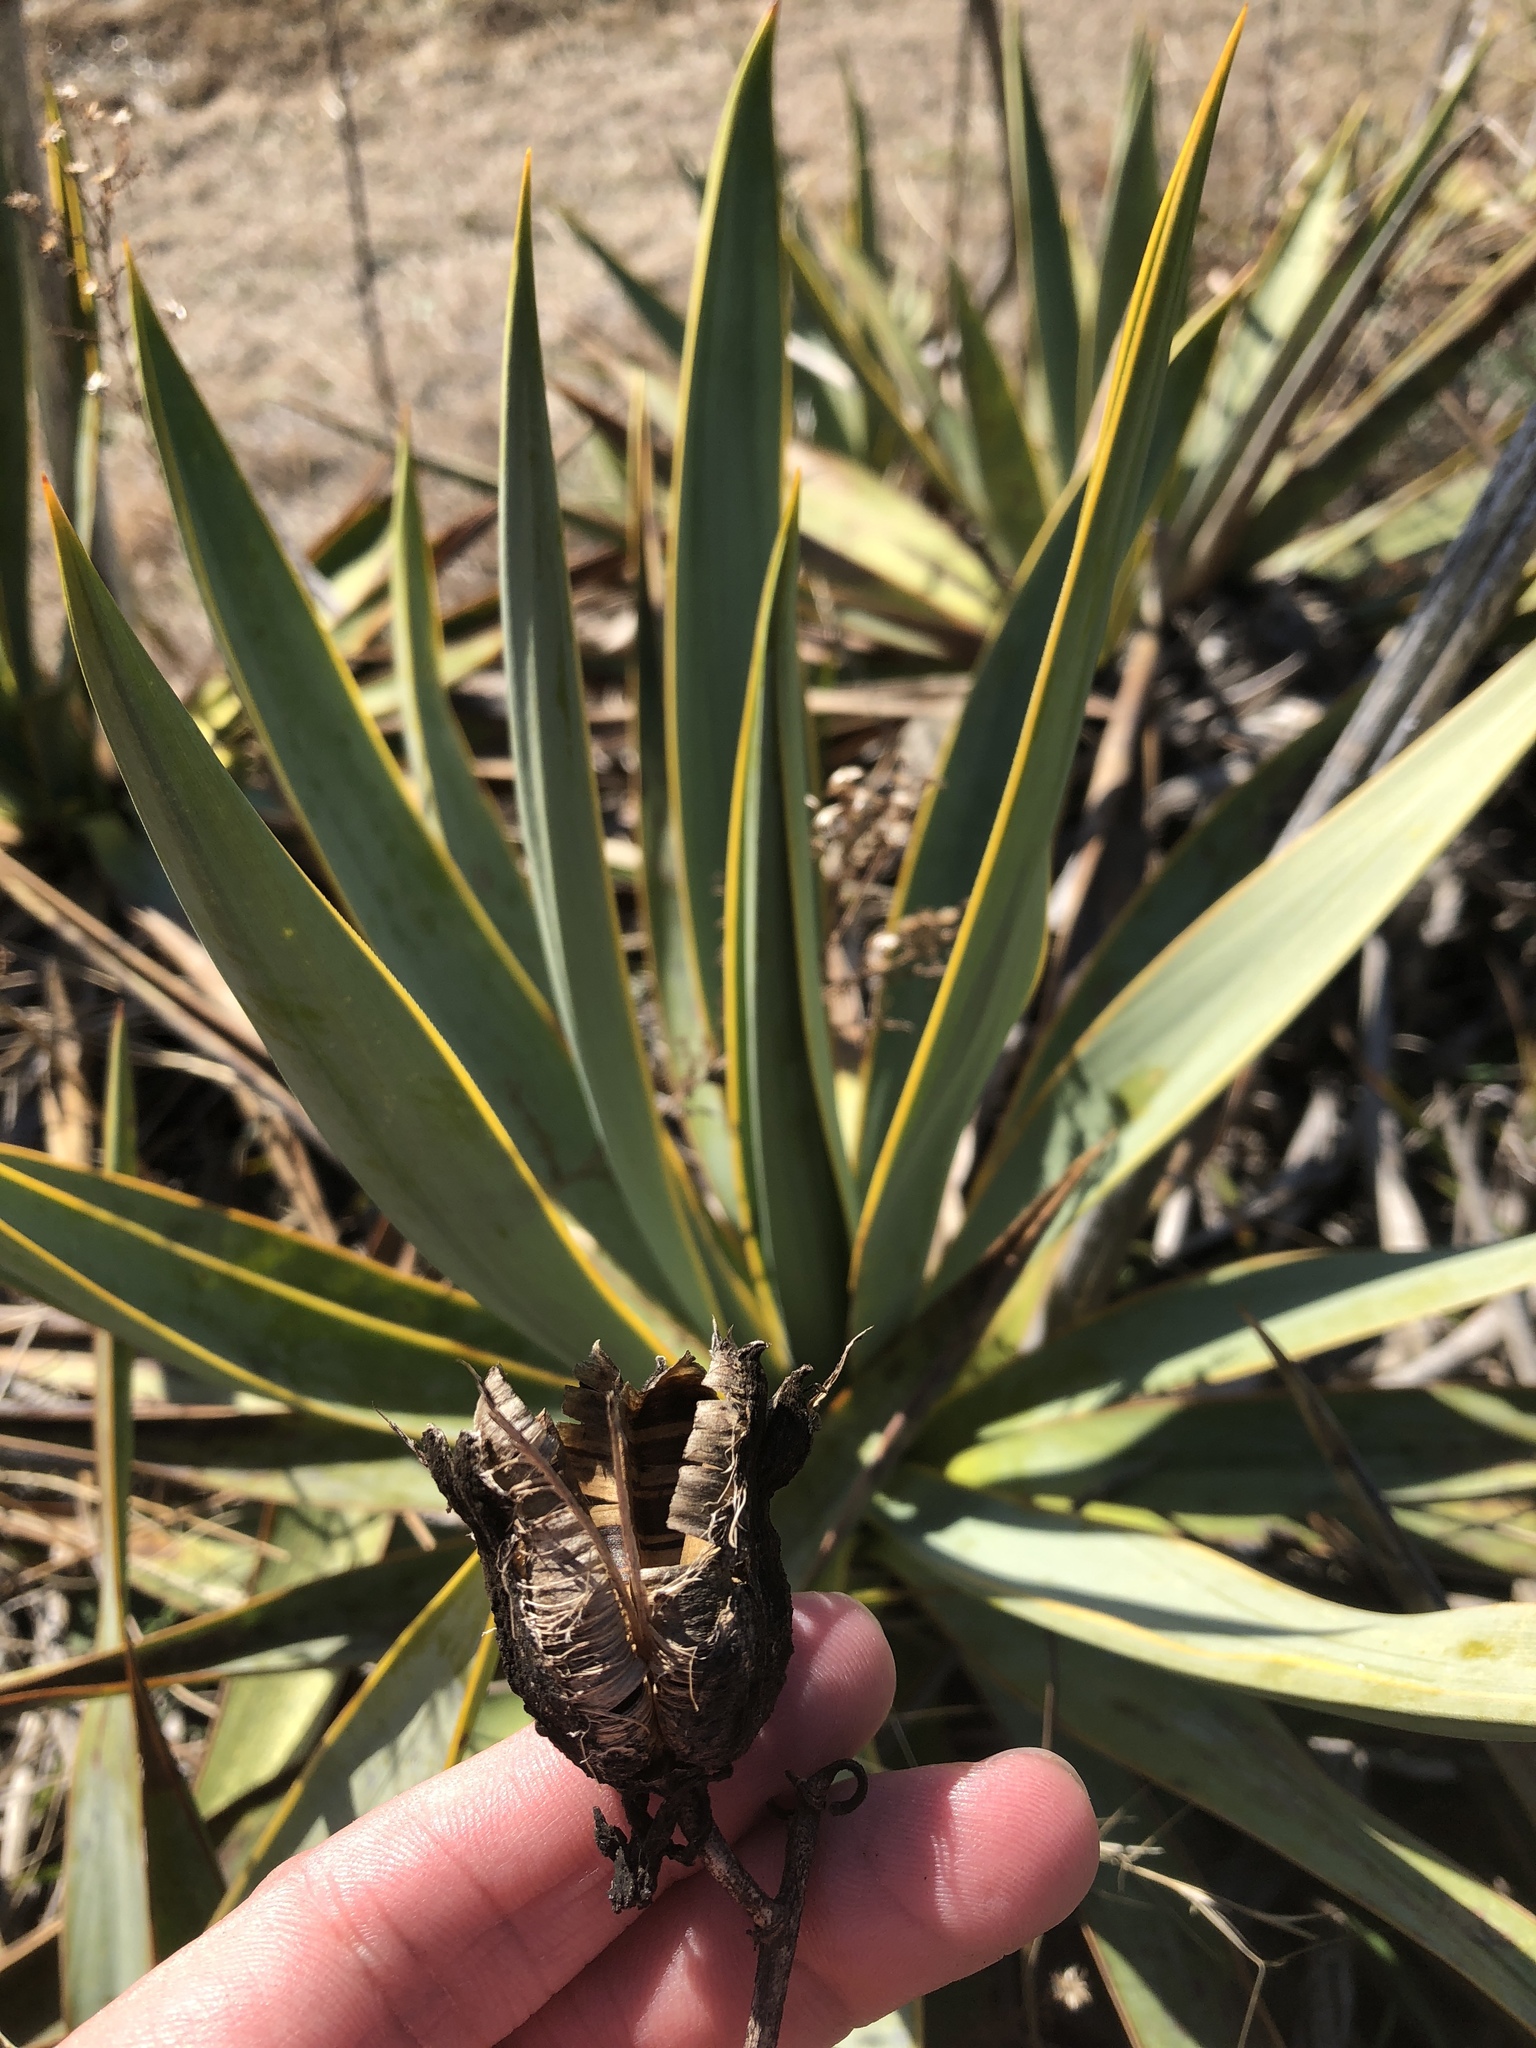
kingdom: Plantae
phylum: Tracheophyta
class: Liliopsida
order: Asparagales
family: Asparagaceae
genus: Yucca
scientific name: Yucca pallida
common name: Pale leaf yucca
